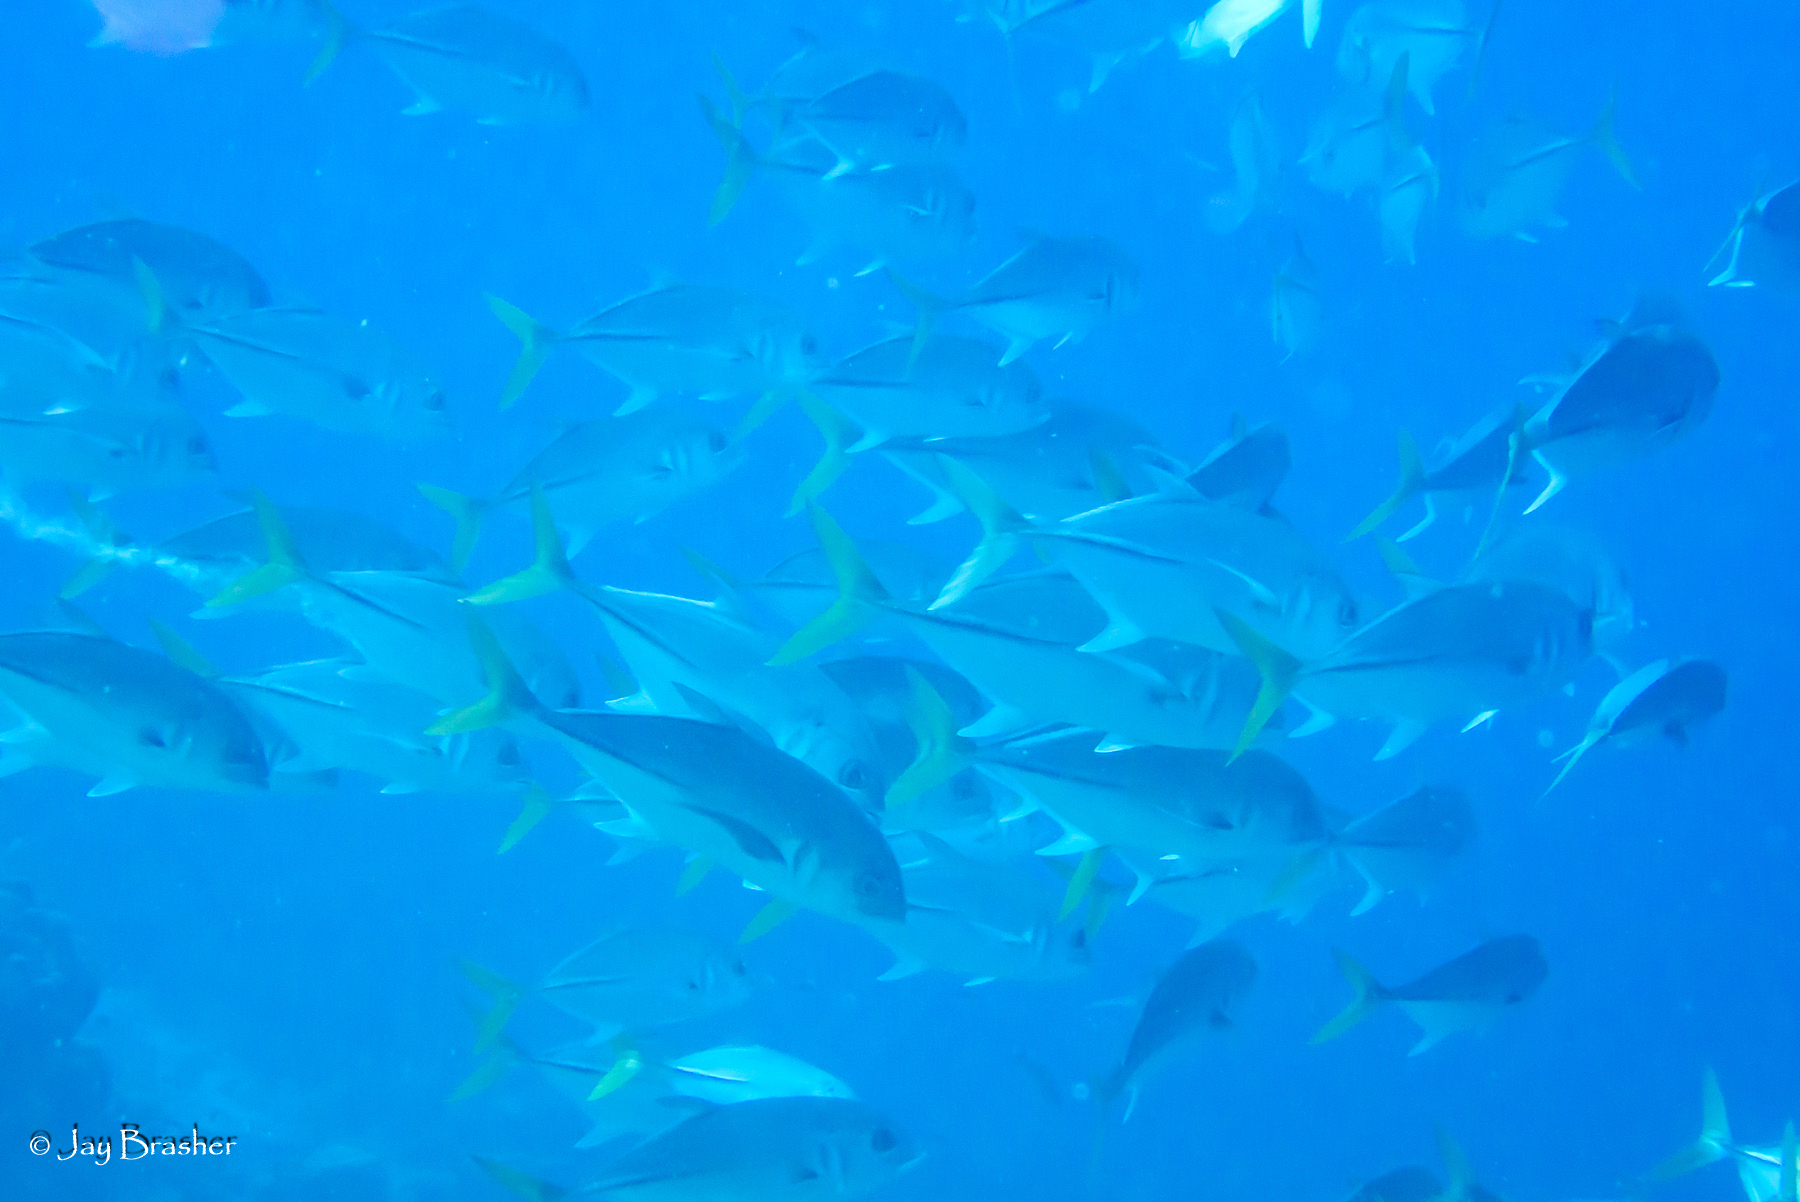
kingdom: Animalia
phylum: Chordata
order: Perciformes
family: Carangidae
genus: Caranx
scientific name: Caranx latus
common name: Horse eye jack
